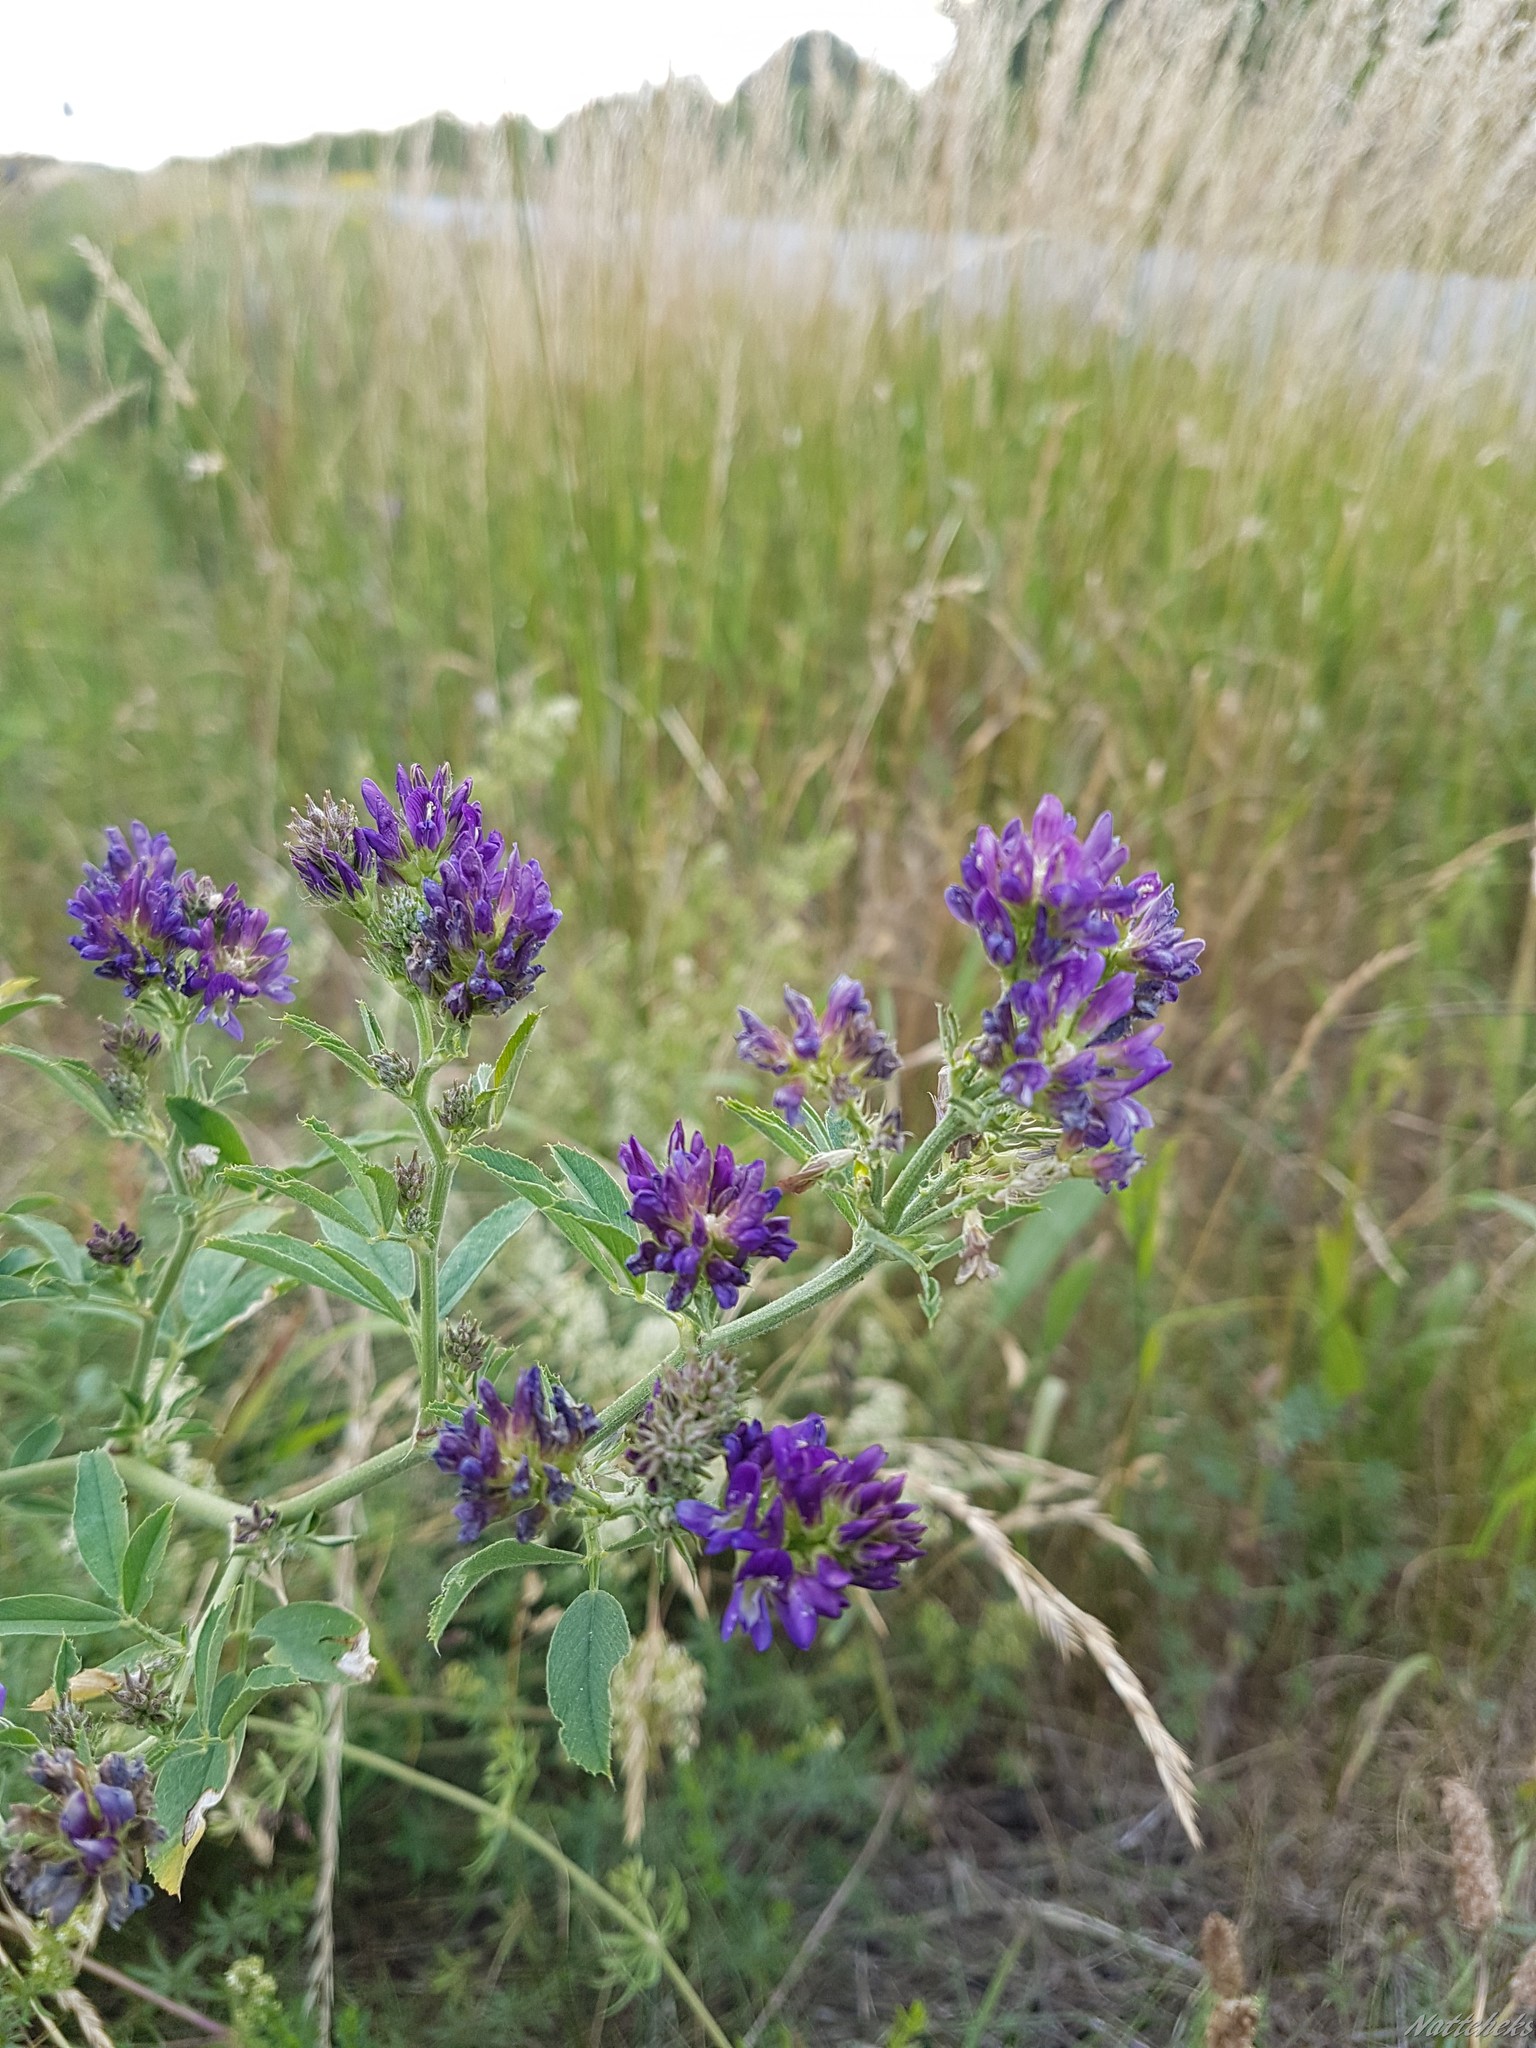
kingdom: Plantae
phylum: Tracheophyta
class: Magnoliopsida
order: Fabales
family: Fabaceae
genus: Medicago
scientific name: Medicago sativa
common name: Alfalfa
